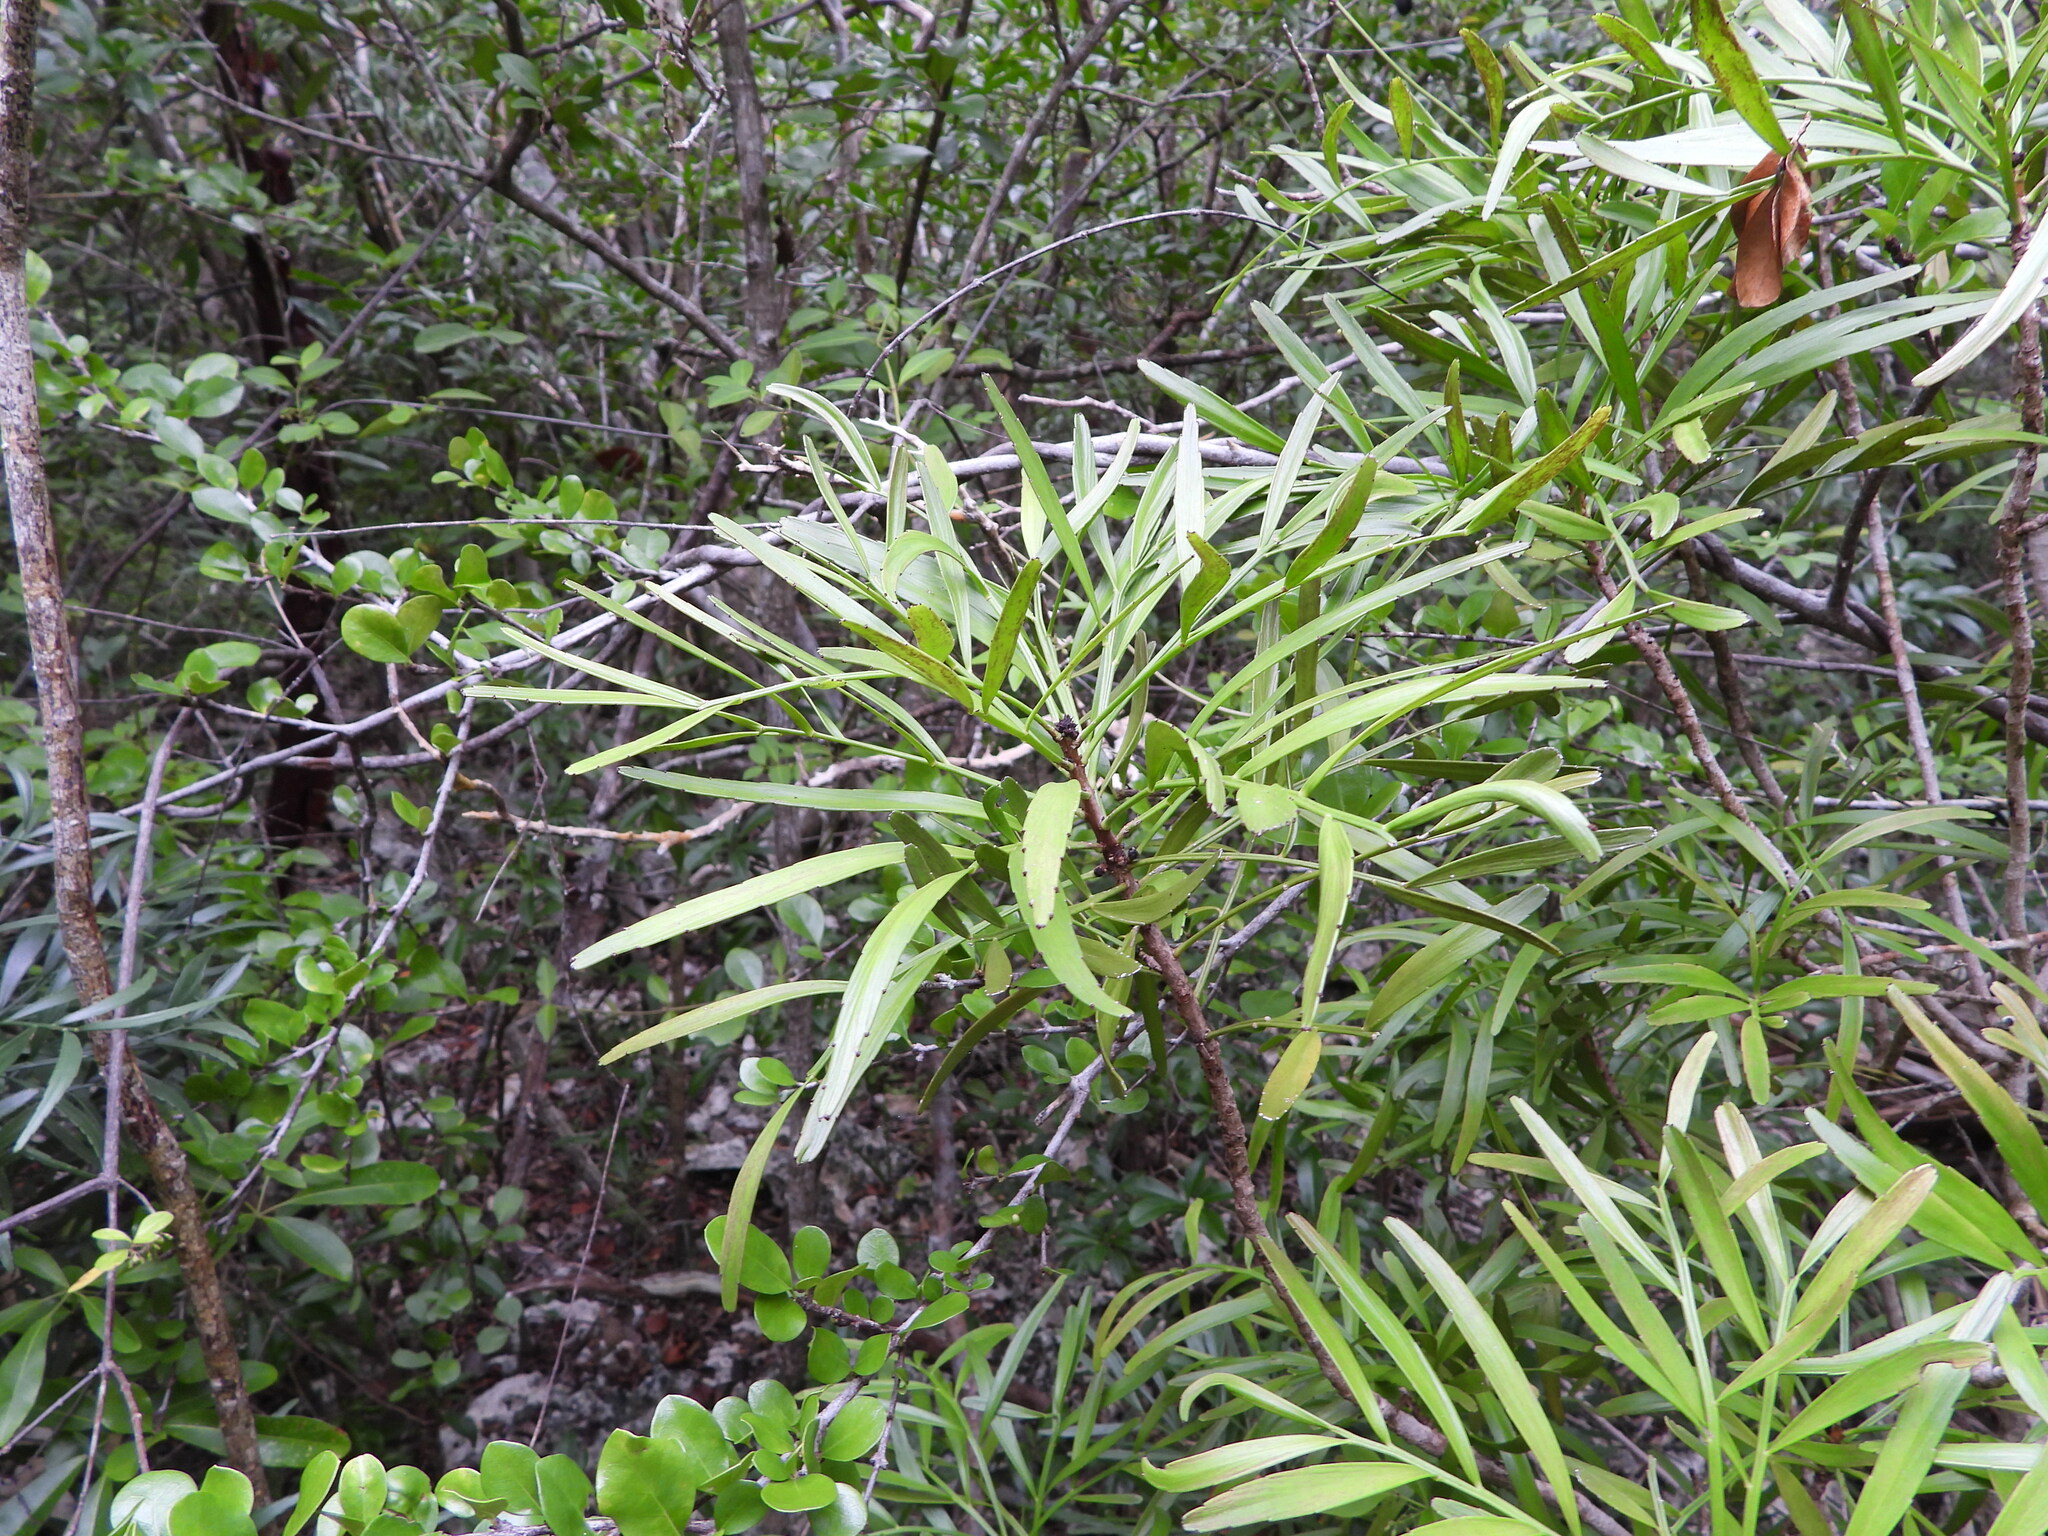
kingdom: Plantae
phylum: Tracheophyta
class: Magnoliopsida
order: Malpighiales
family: Phyllanthaceae
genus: Phyllanthus
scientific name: Phyllanthus angustifolius
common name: Foliage flower
